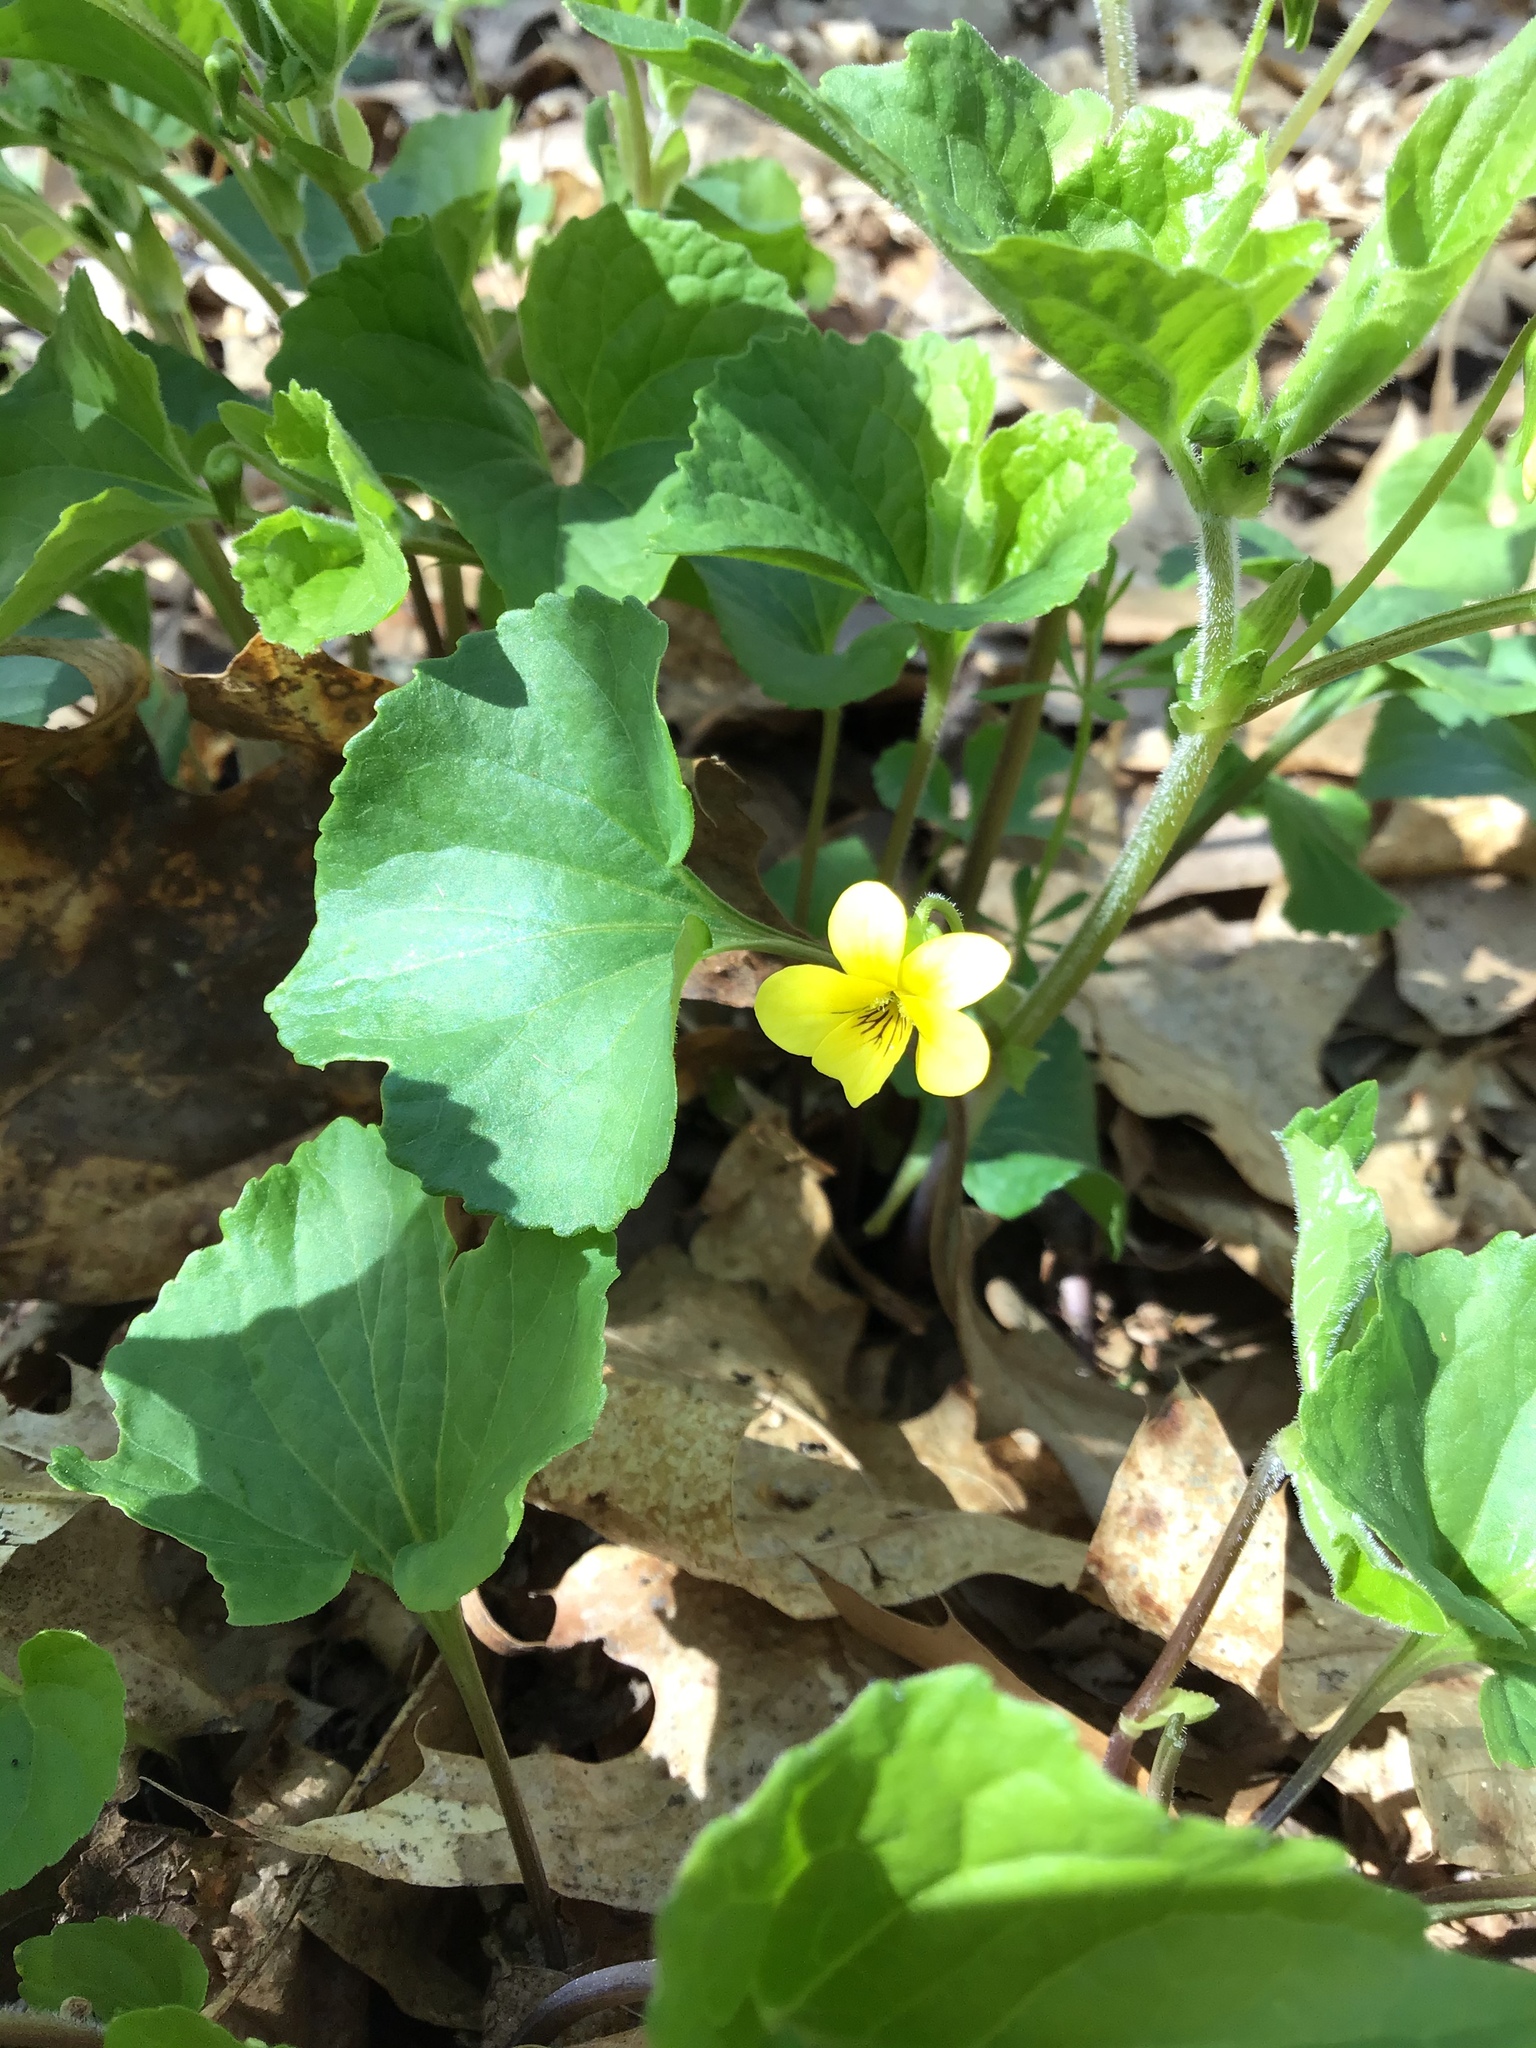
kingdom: Plantae
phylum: Tracheophyta
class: Magnoliopsida
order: Malpighiales
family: Violaceae
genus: Viola
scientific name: Viola eriocarpa
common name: Smooth yellow violet
